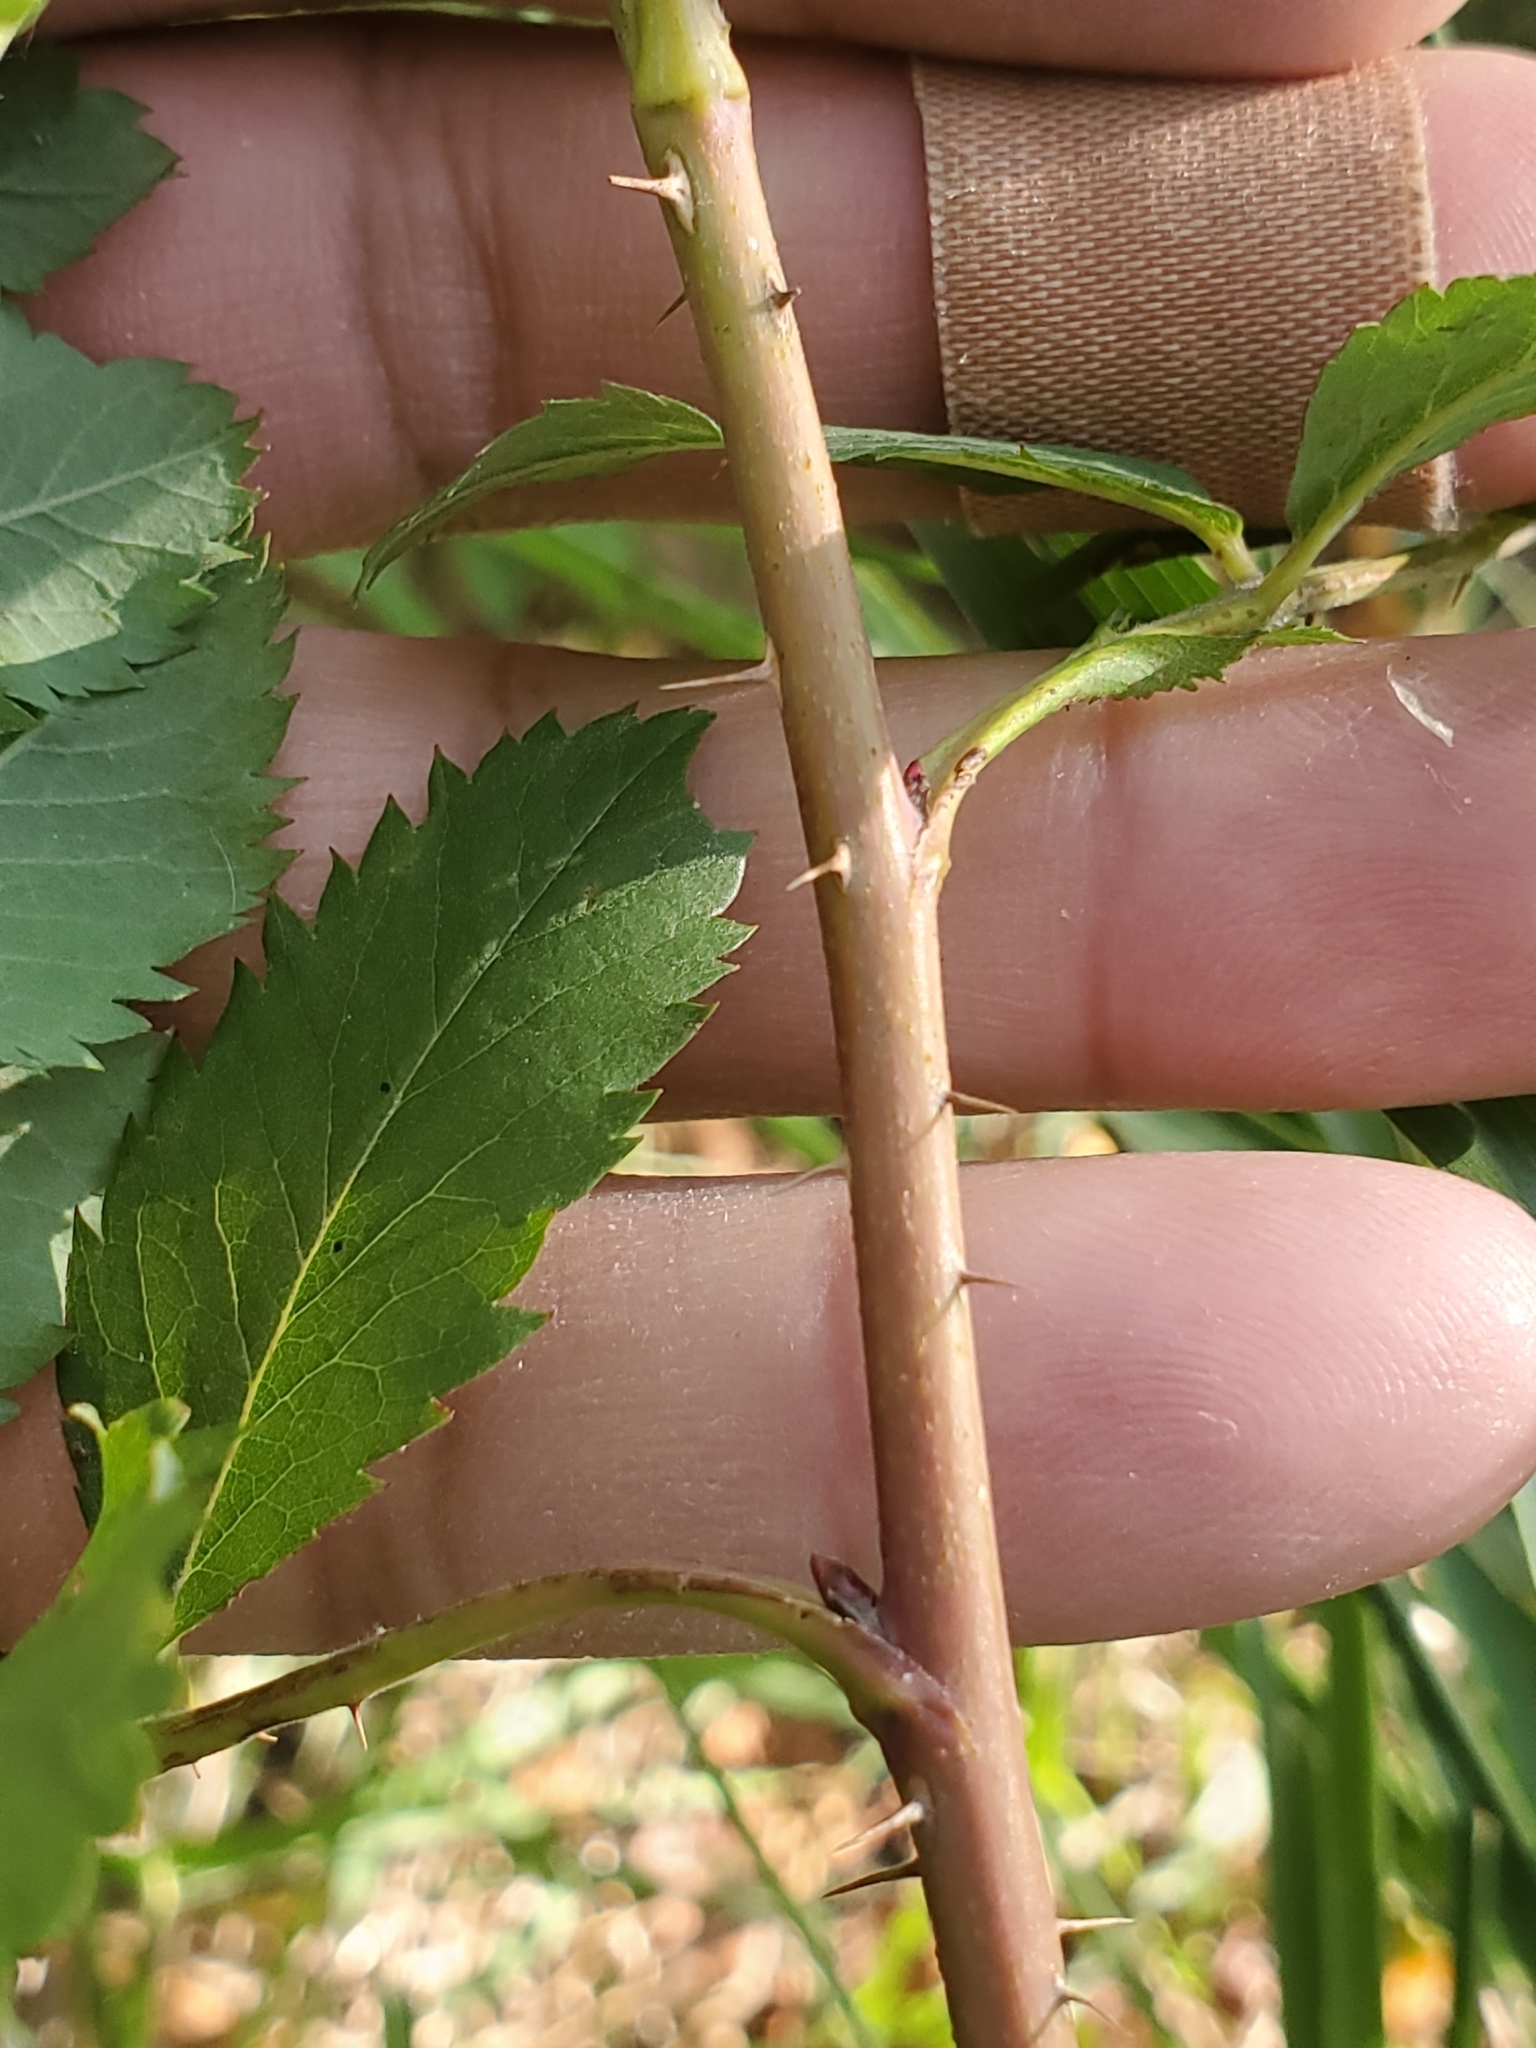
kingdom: Animalia
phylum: Arthropoda
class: Insecta
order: Hymenoptera
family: Cynipidae
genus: Diplolepis
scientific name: Diplolepis gracilis
